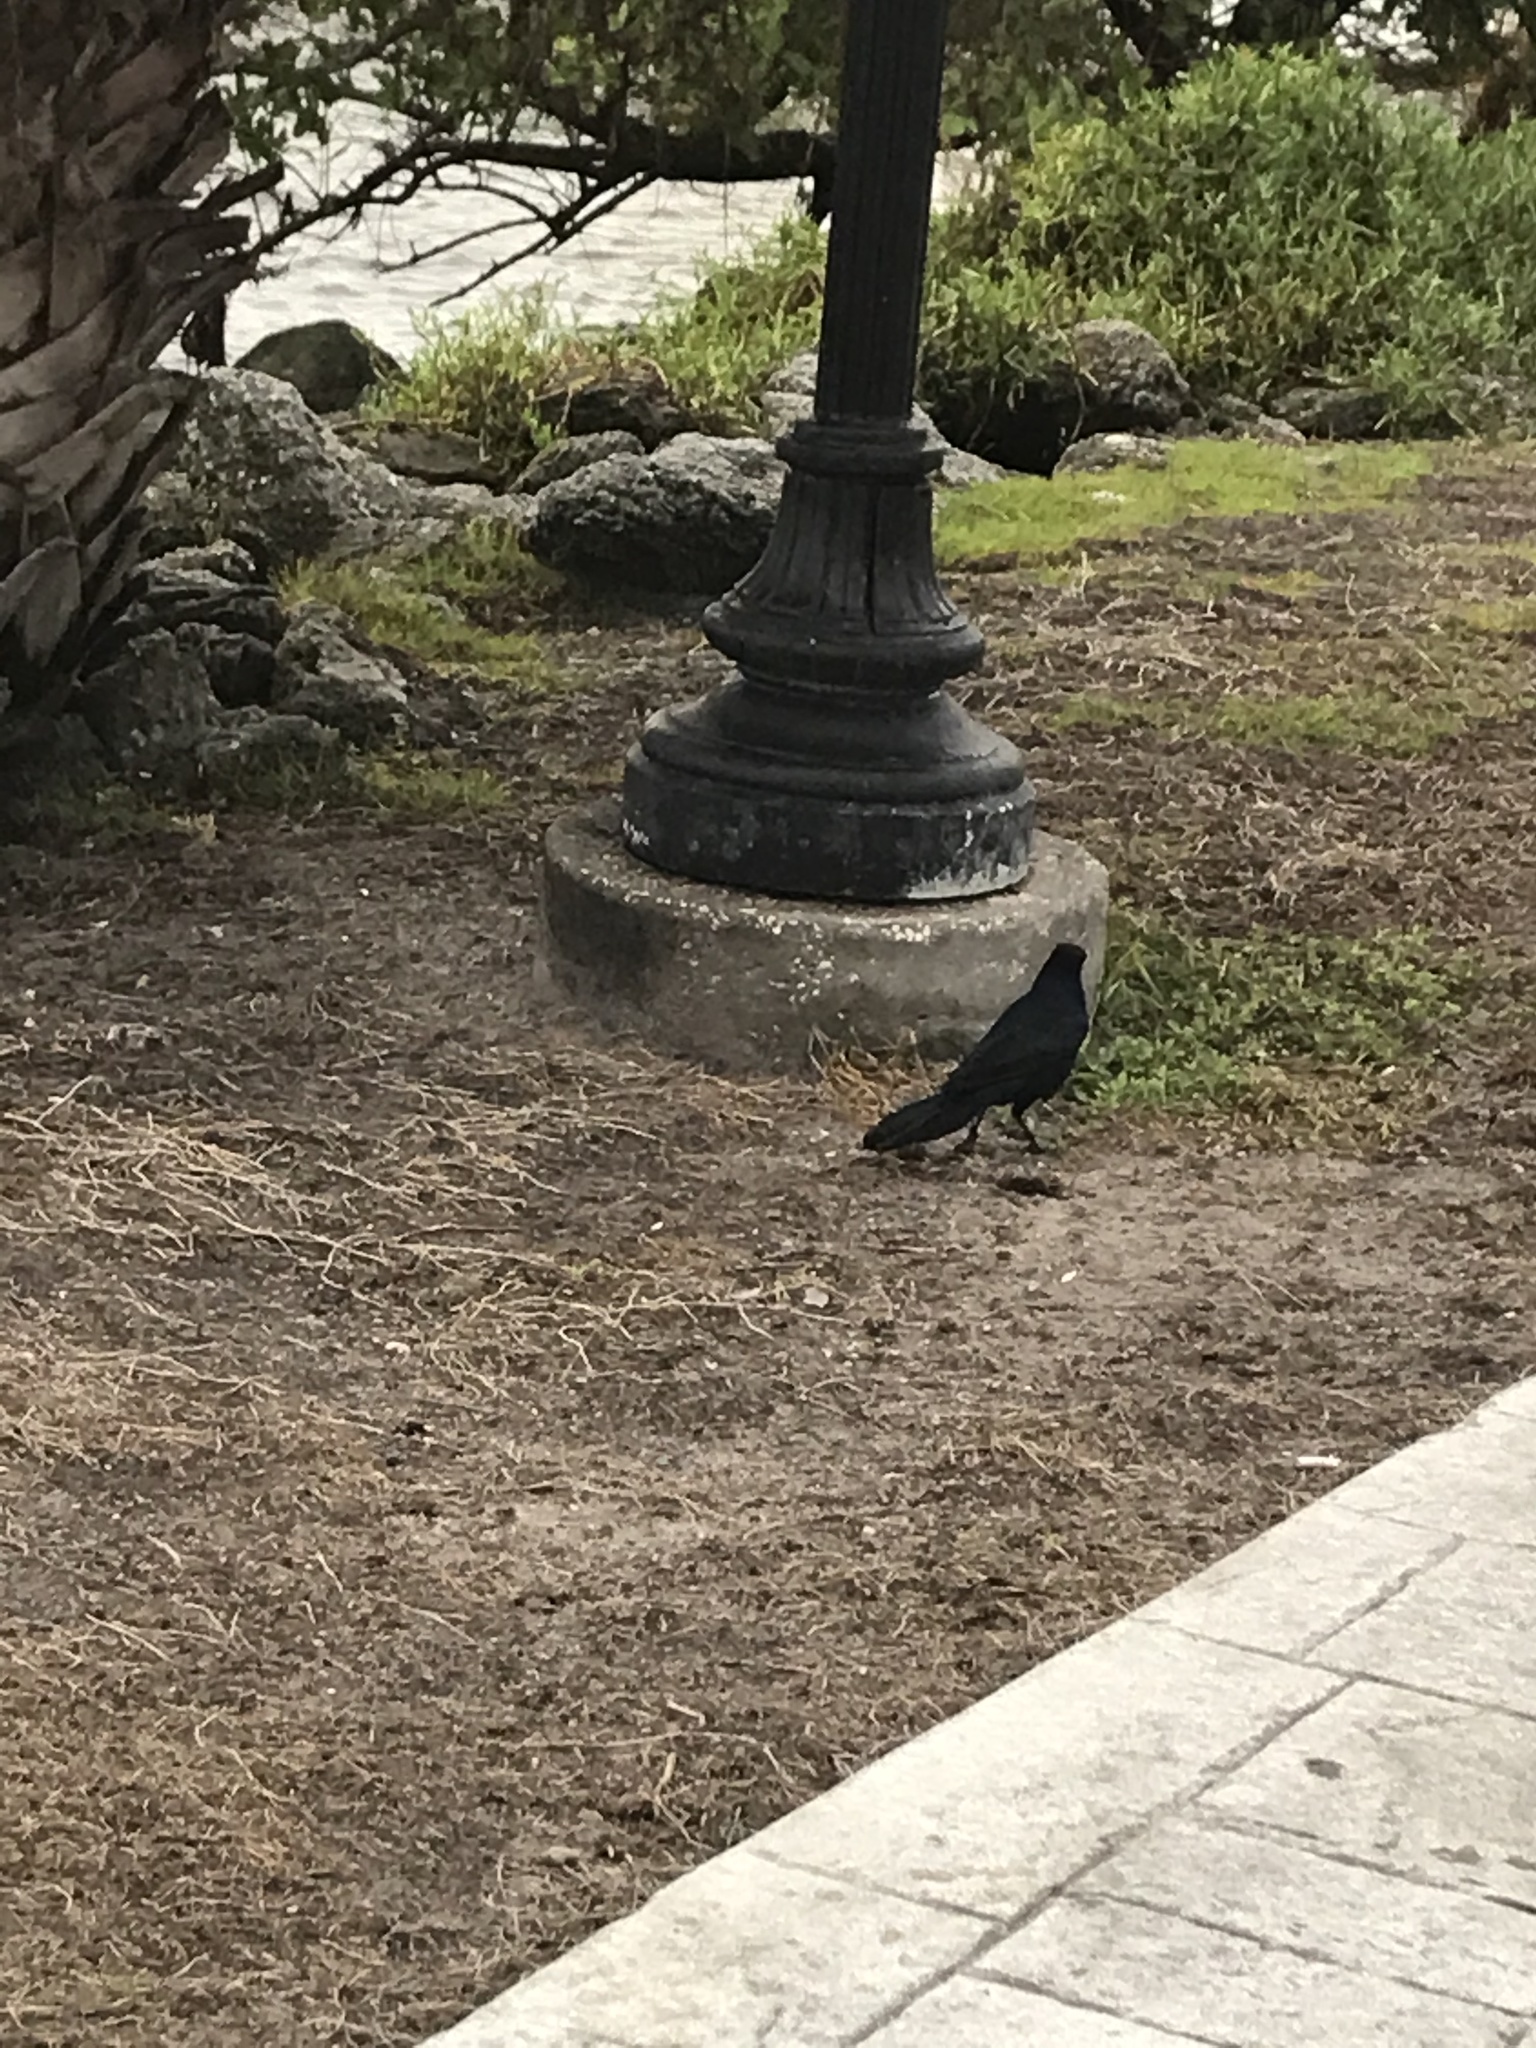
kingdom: Animalia
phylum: Chordata
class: Aves
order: Passeriformes
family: Icteridae
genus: Quiscalus
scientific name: Quiscalus major
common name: Boat-tailed grackle
